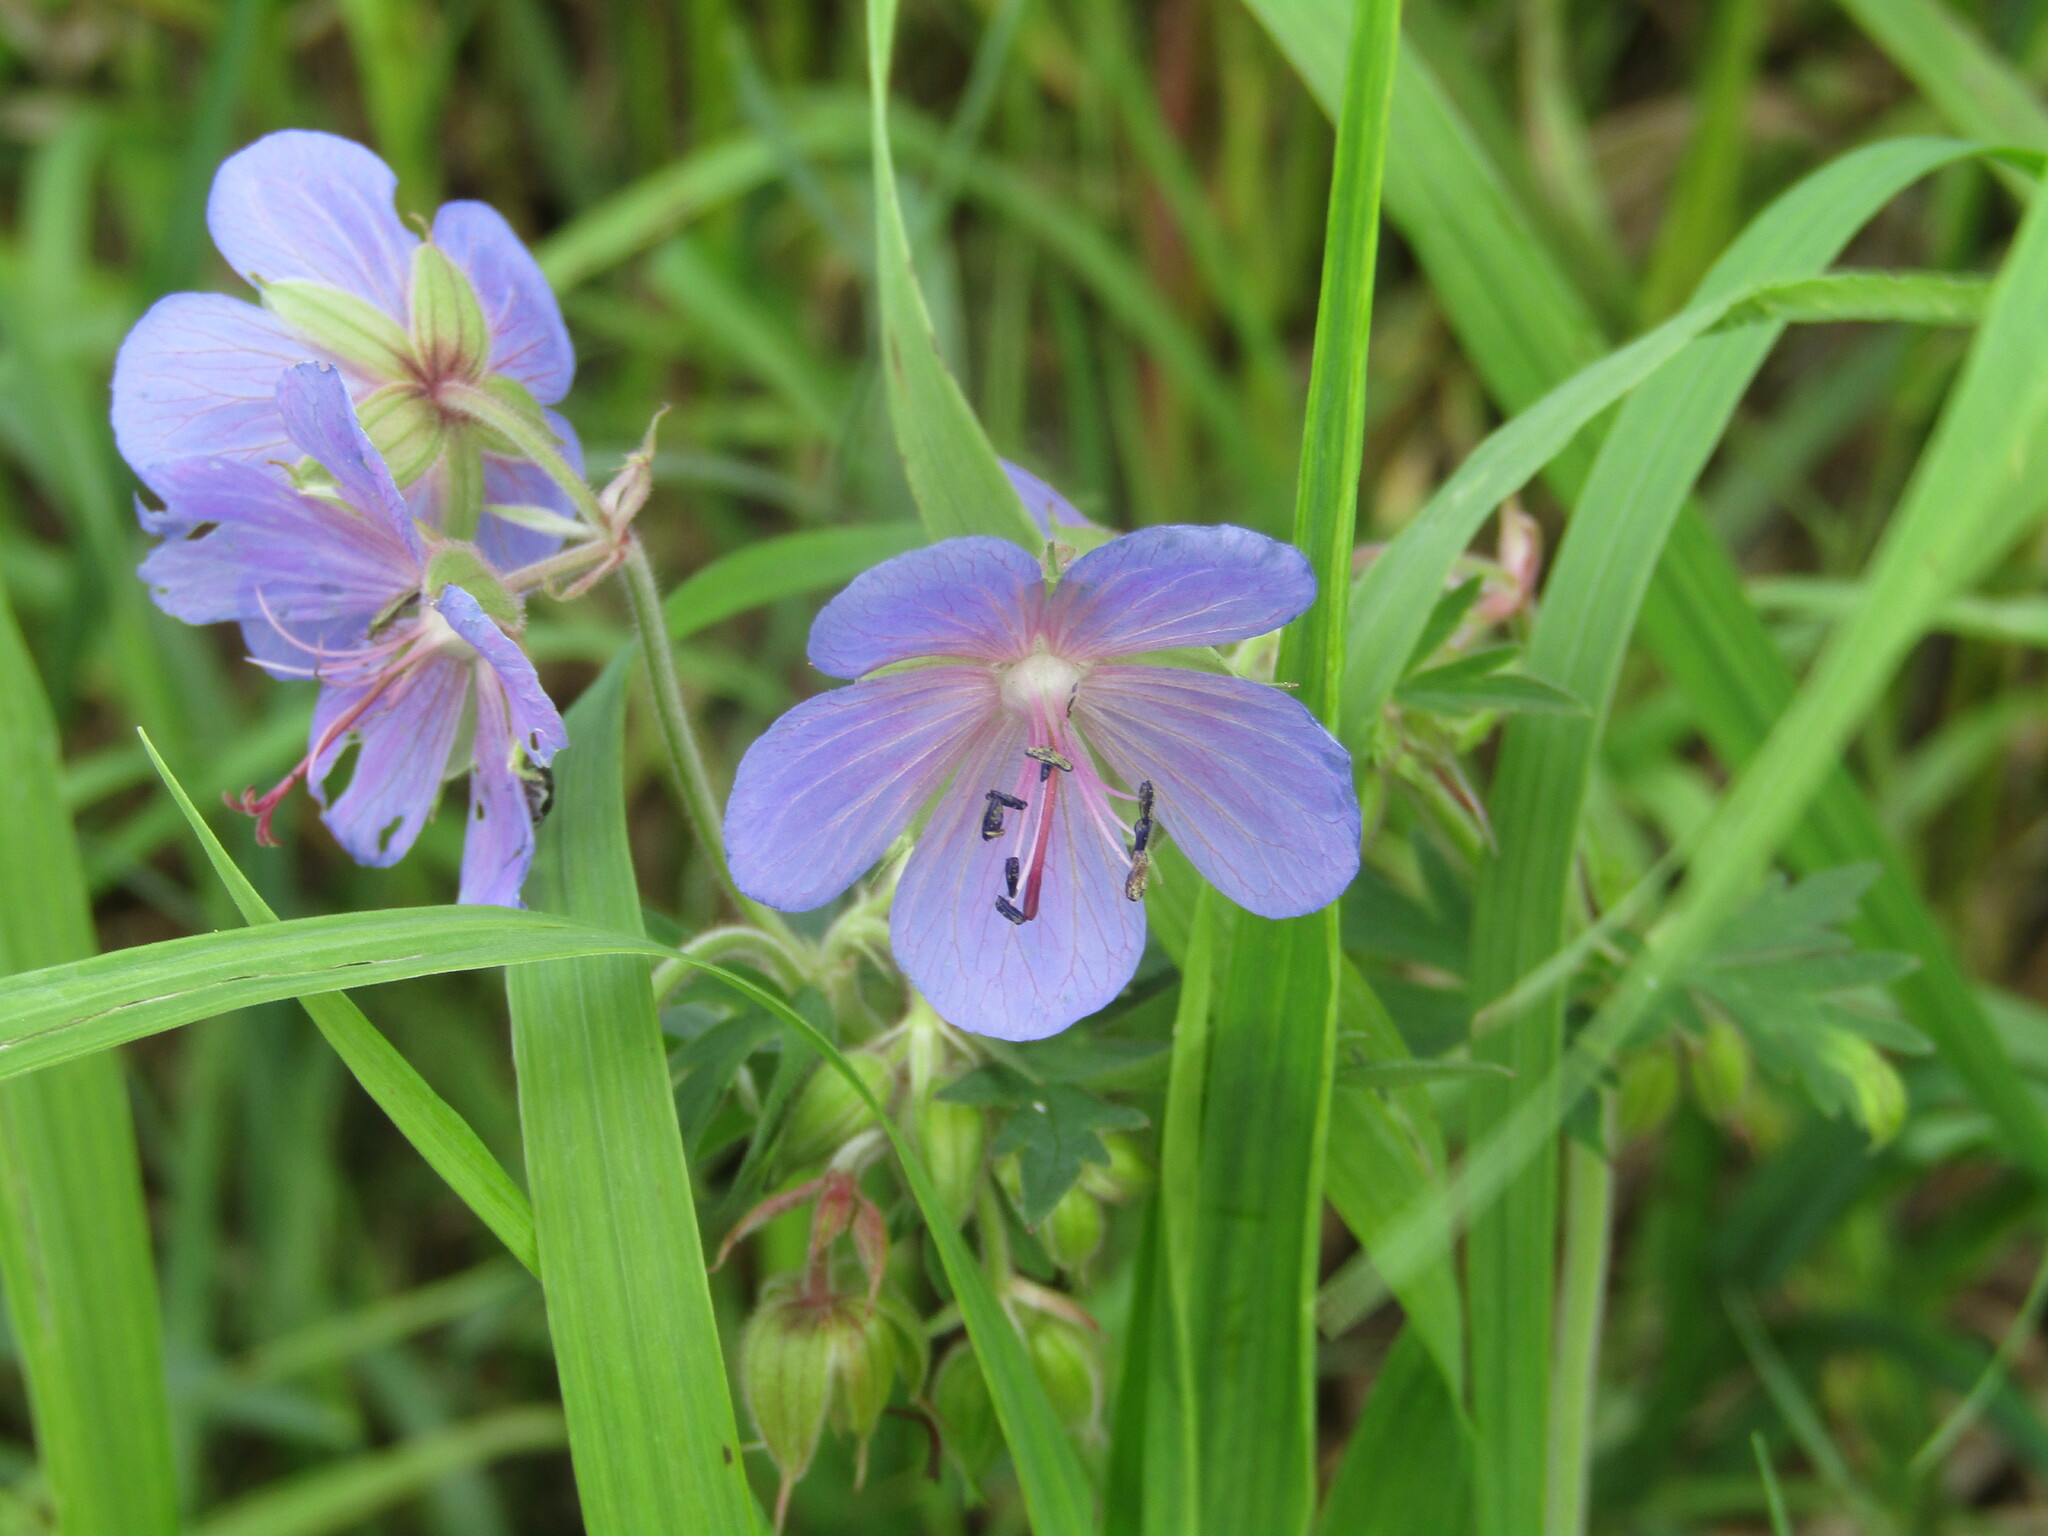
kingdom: Plantae
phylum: Tracheophyta
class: Magnoliopsida
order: Geraniales
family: Geraniaceae
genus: Geranium
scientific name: Geranium pratense
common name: Meadow crane's-bill
